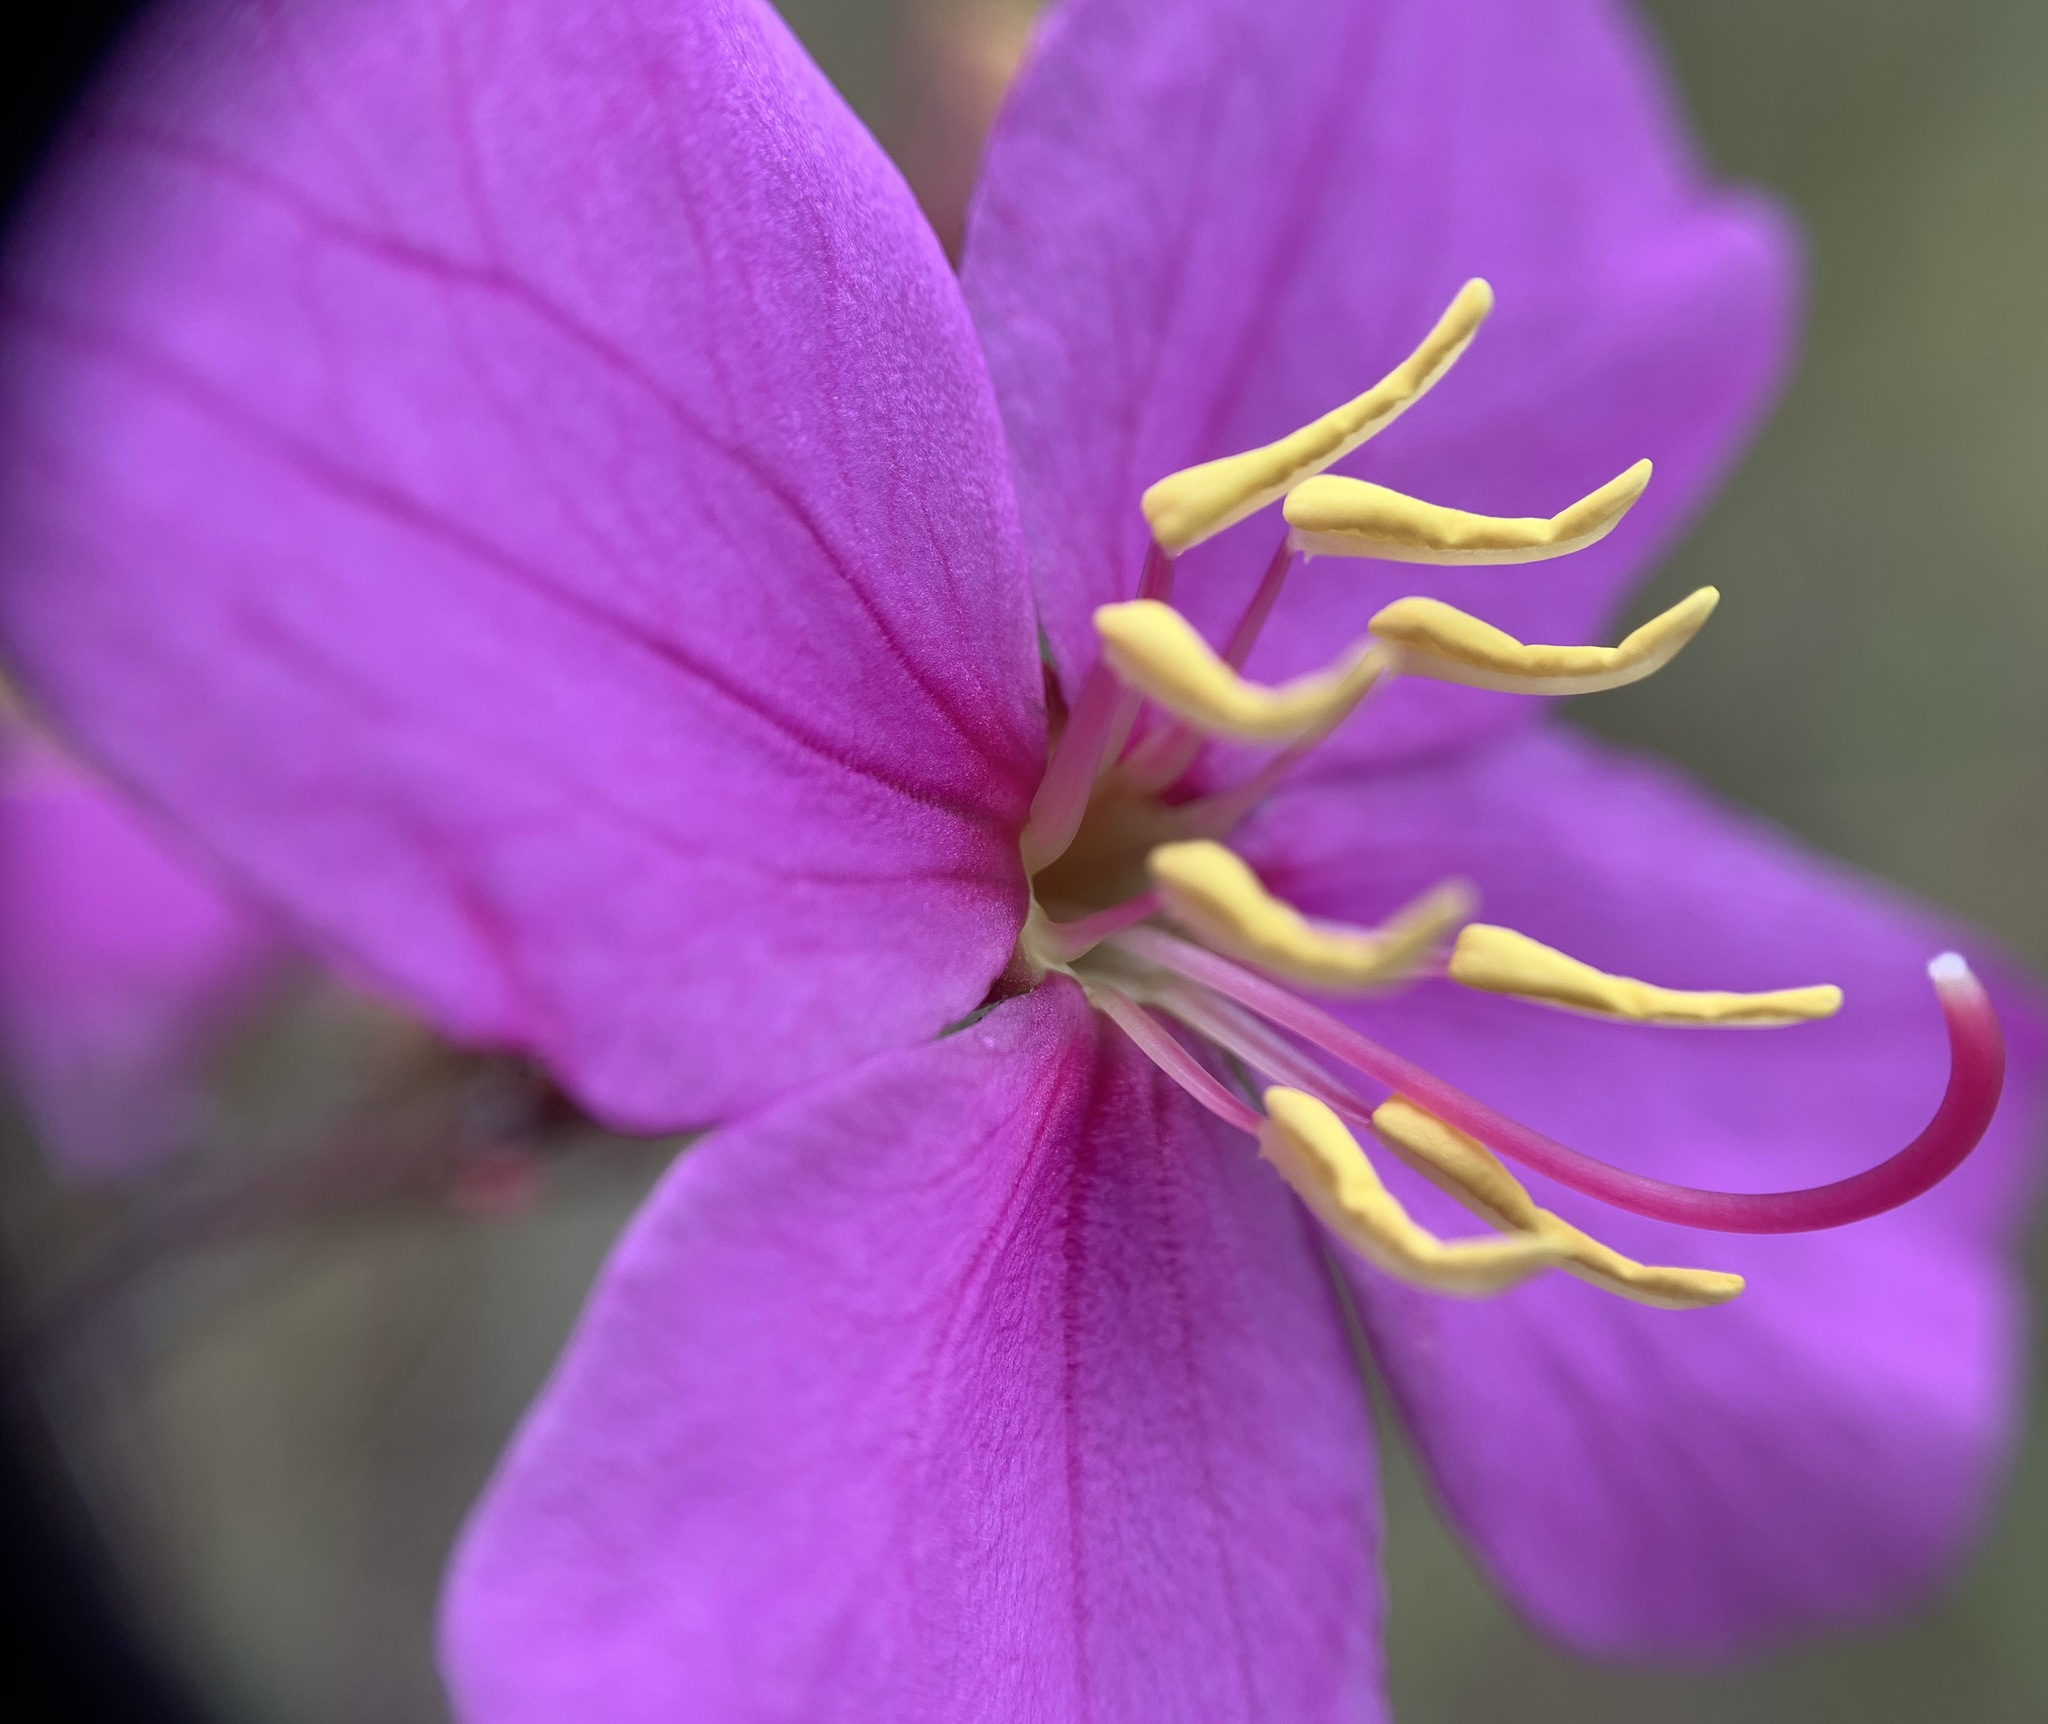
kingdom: Plantae
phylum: Tracheophyta
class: Magnoliopsida
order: Myrtales
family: Melastomataceae
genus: Rhexia
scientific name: Rhexia alifanus
